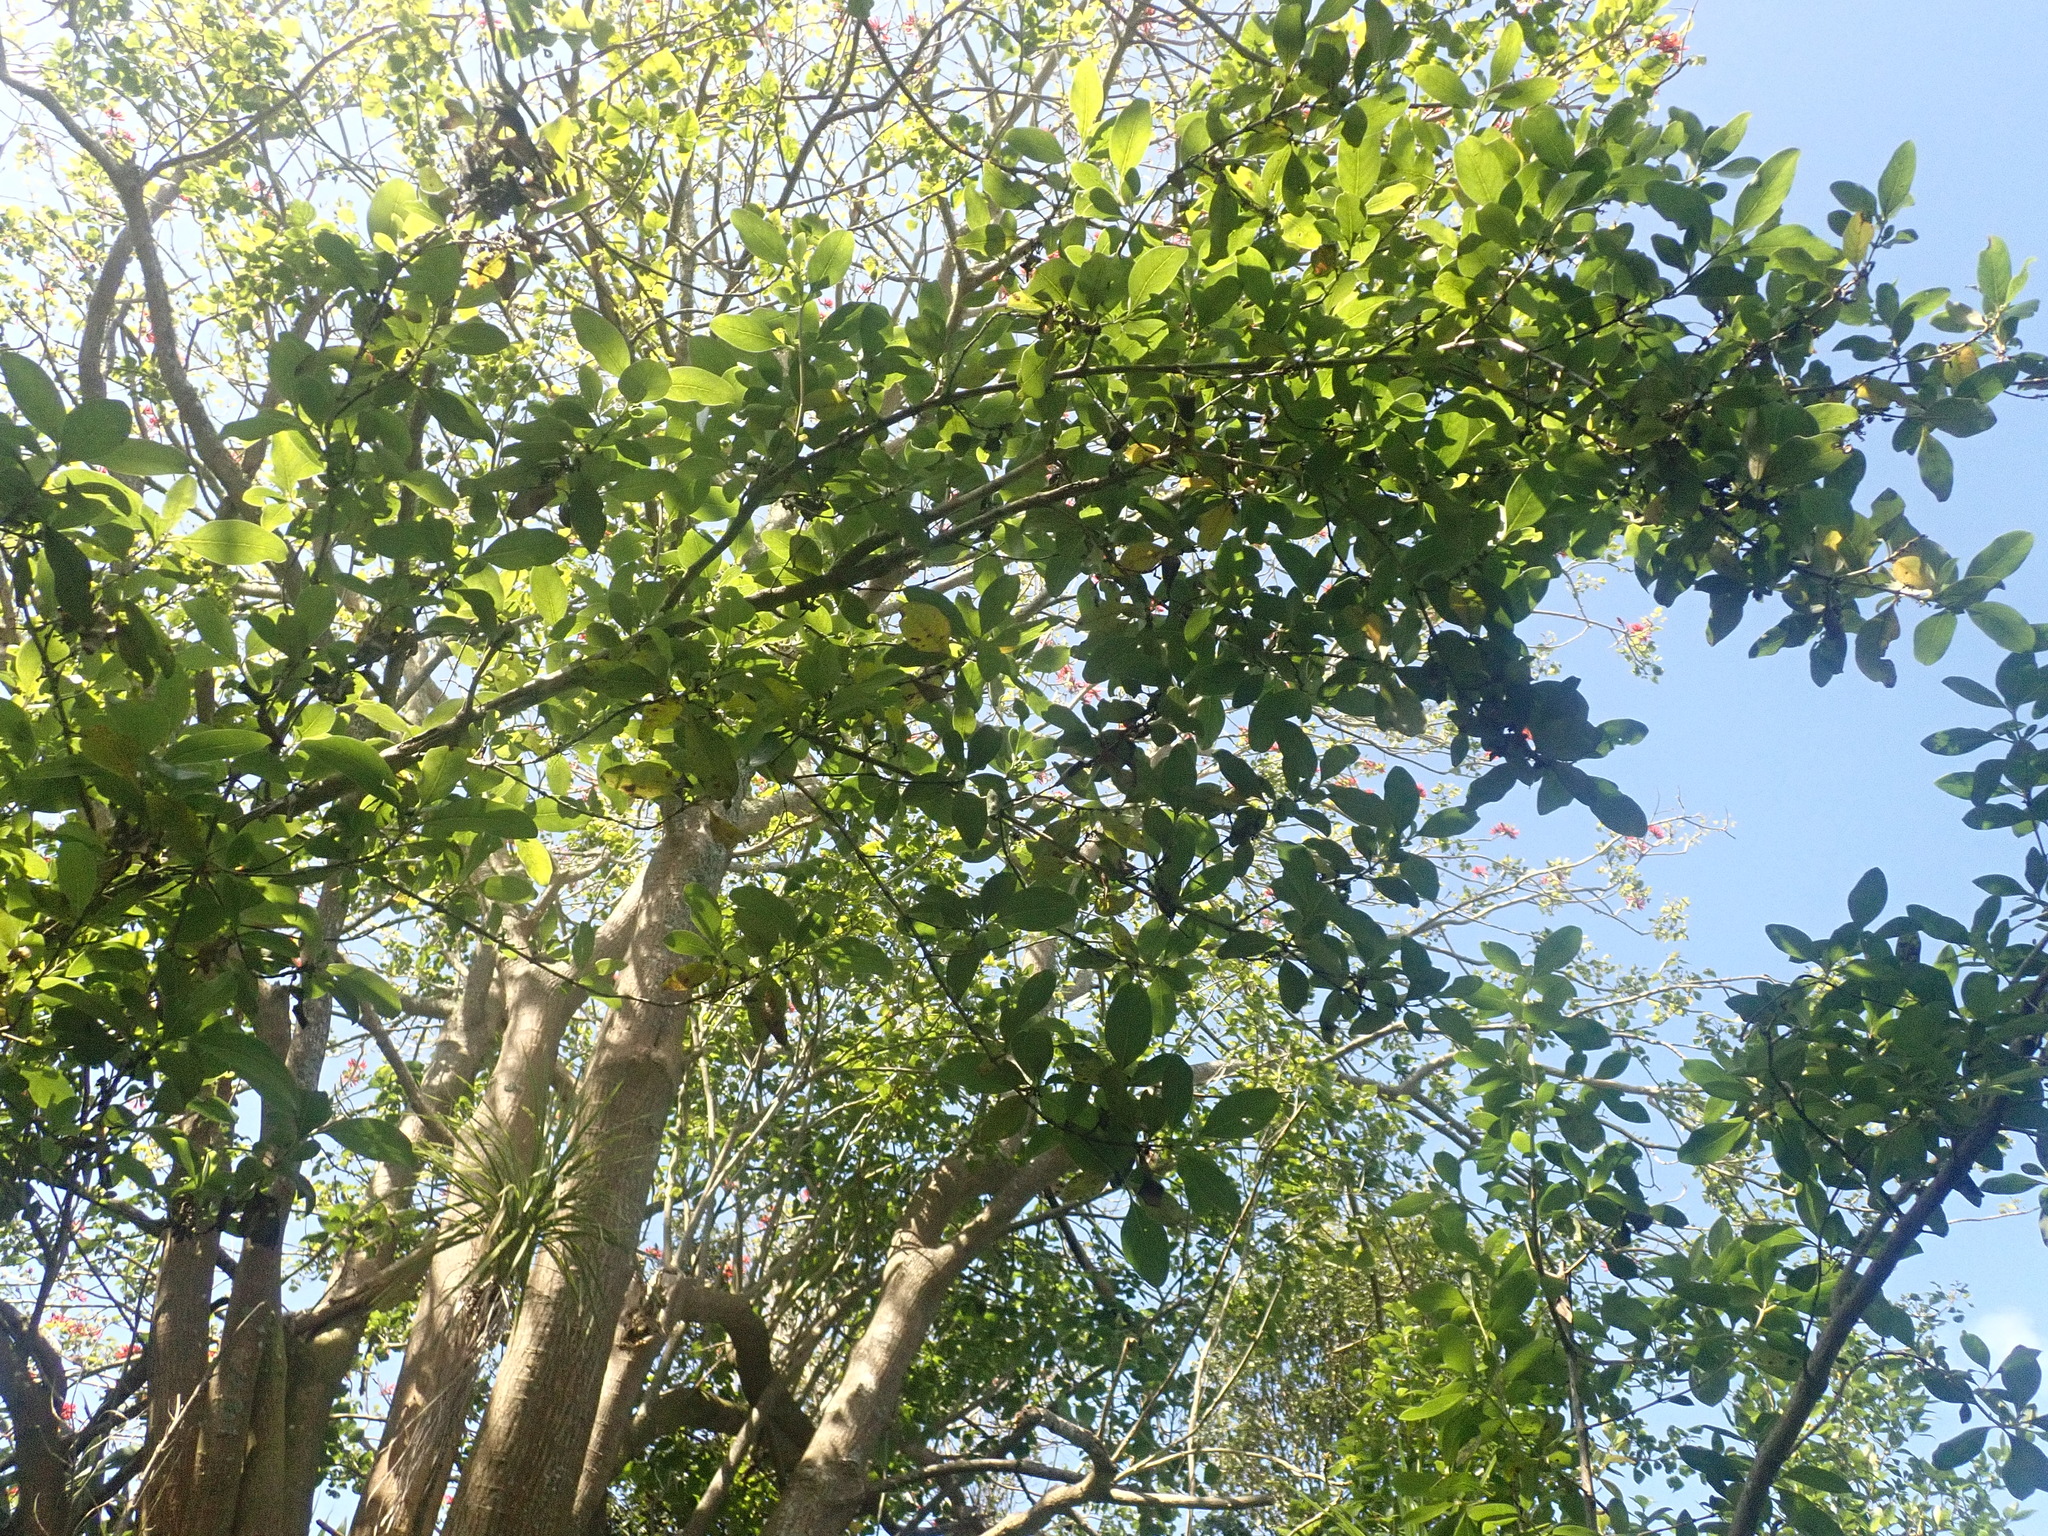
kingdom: Plantae
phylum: Tracheophyta
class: Magnoliopsida
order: Gentianales
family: Rubiaceae
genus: Coprosma
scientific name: Coprosma robusta
